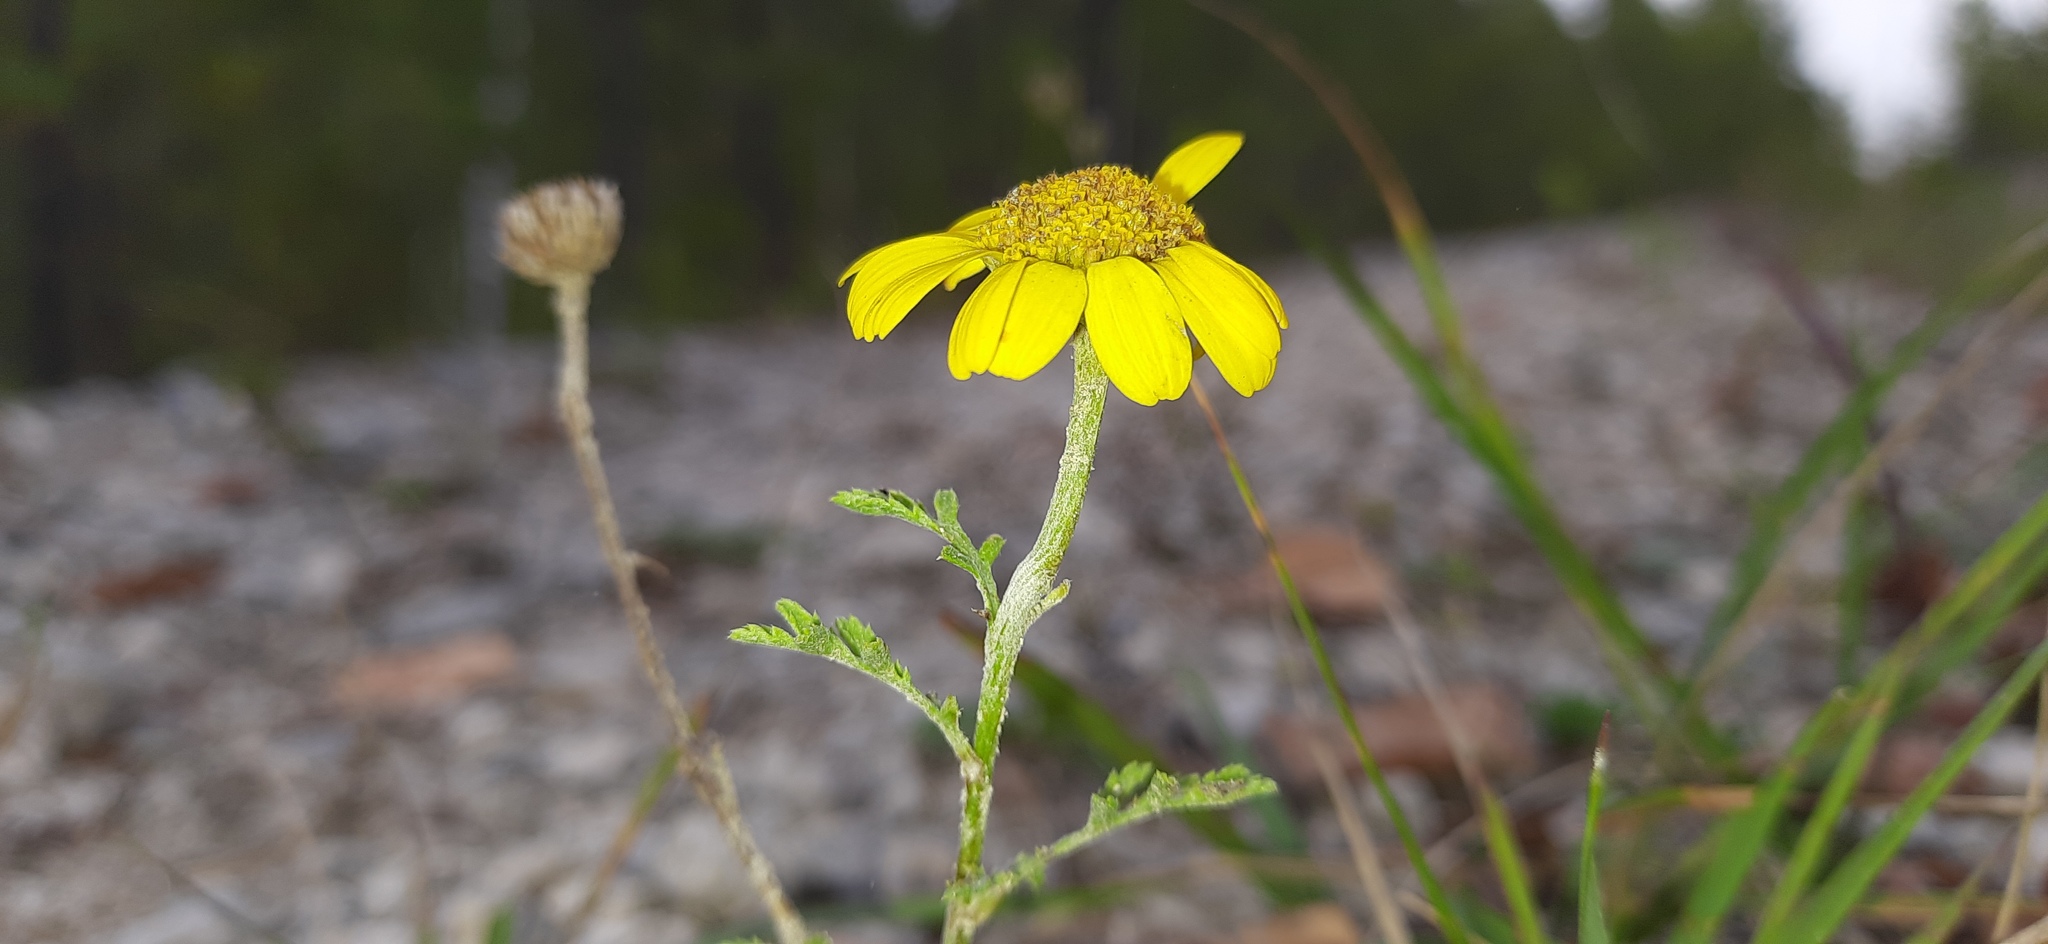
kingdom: Plantae
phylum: Tracheophyta
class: Magnoliopsida
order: Asterales
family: Asteraceae
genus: Cota
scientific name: Cota tinctoria
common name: Golden chamomile
